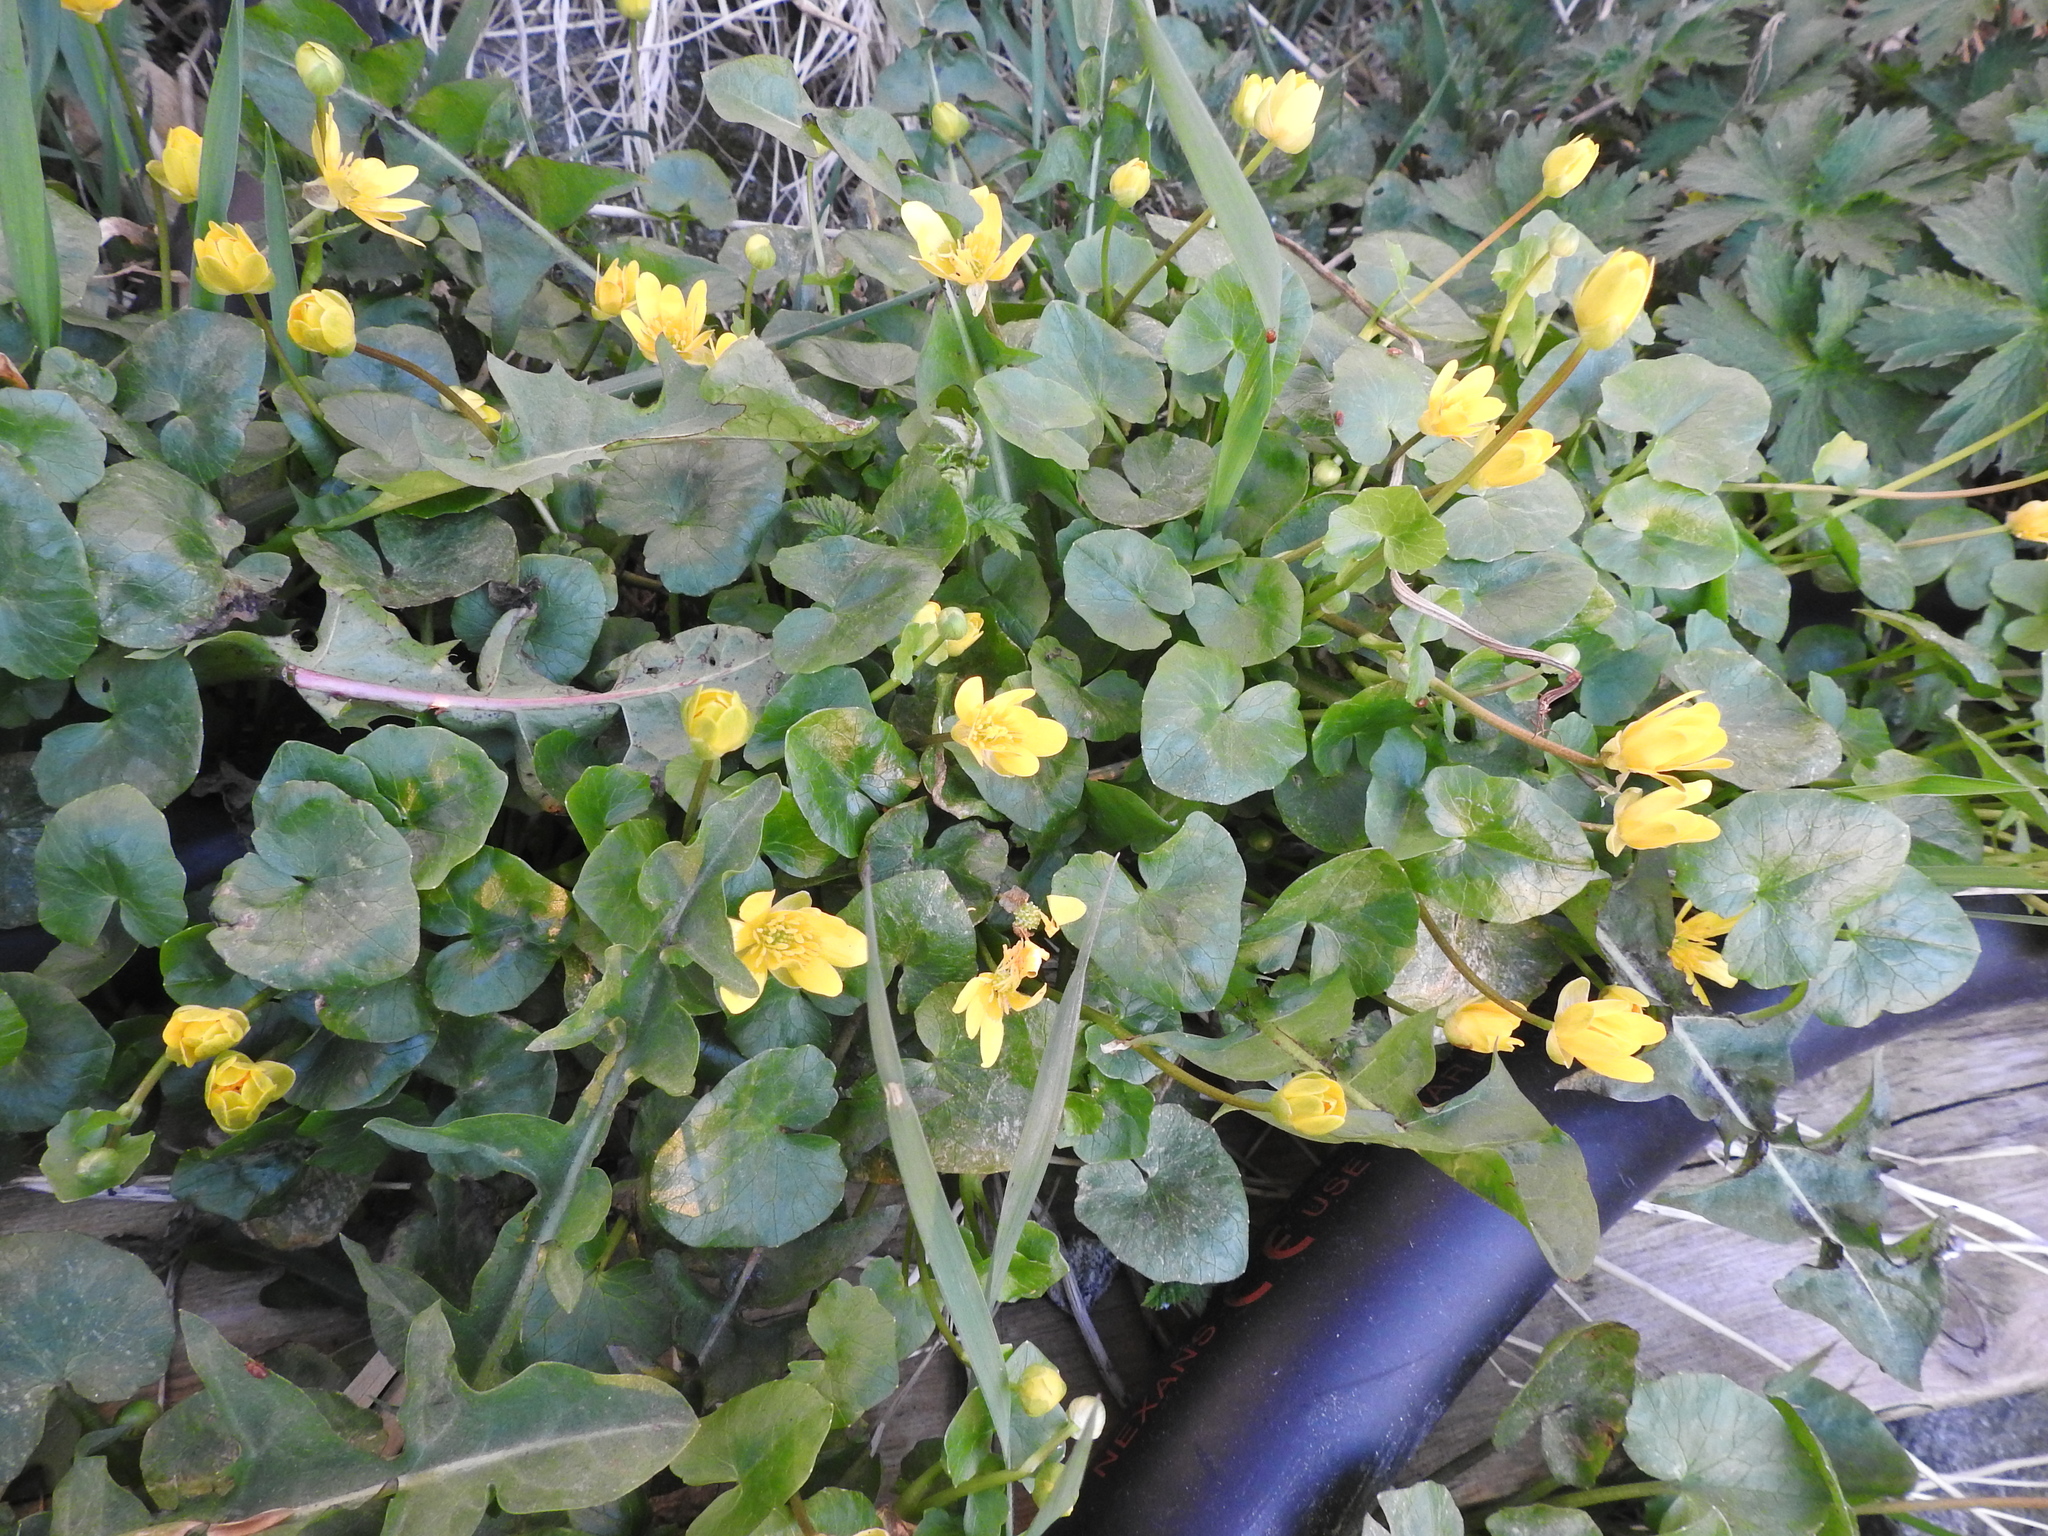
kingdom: Plantae
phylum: Tracheophyta
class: Magnoliopsida
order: Ranunculales
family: Ranunculaceae
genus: Ficaria
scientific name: Ficaria verna
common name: Lesser celandine
